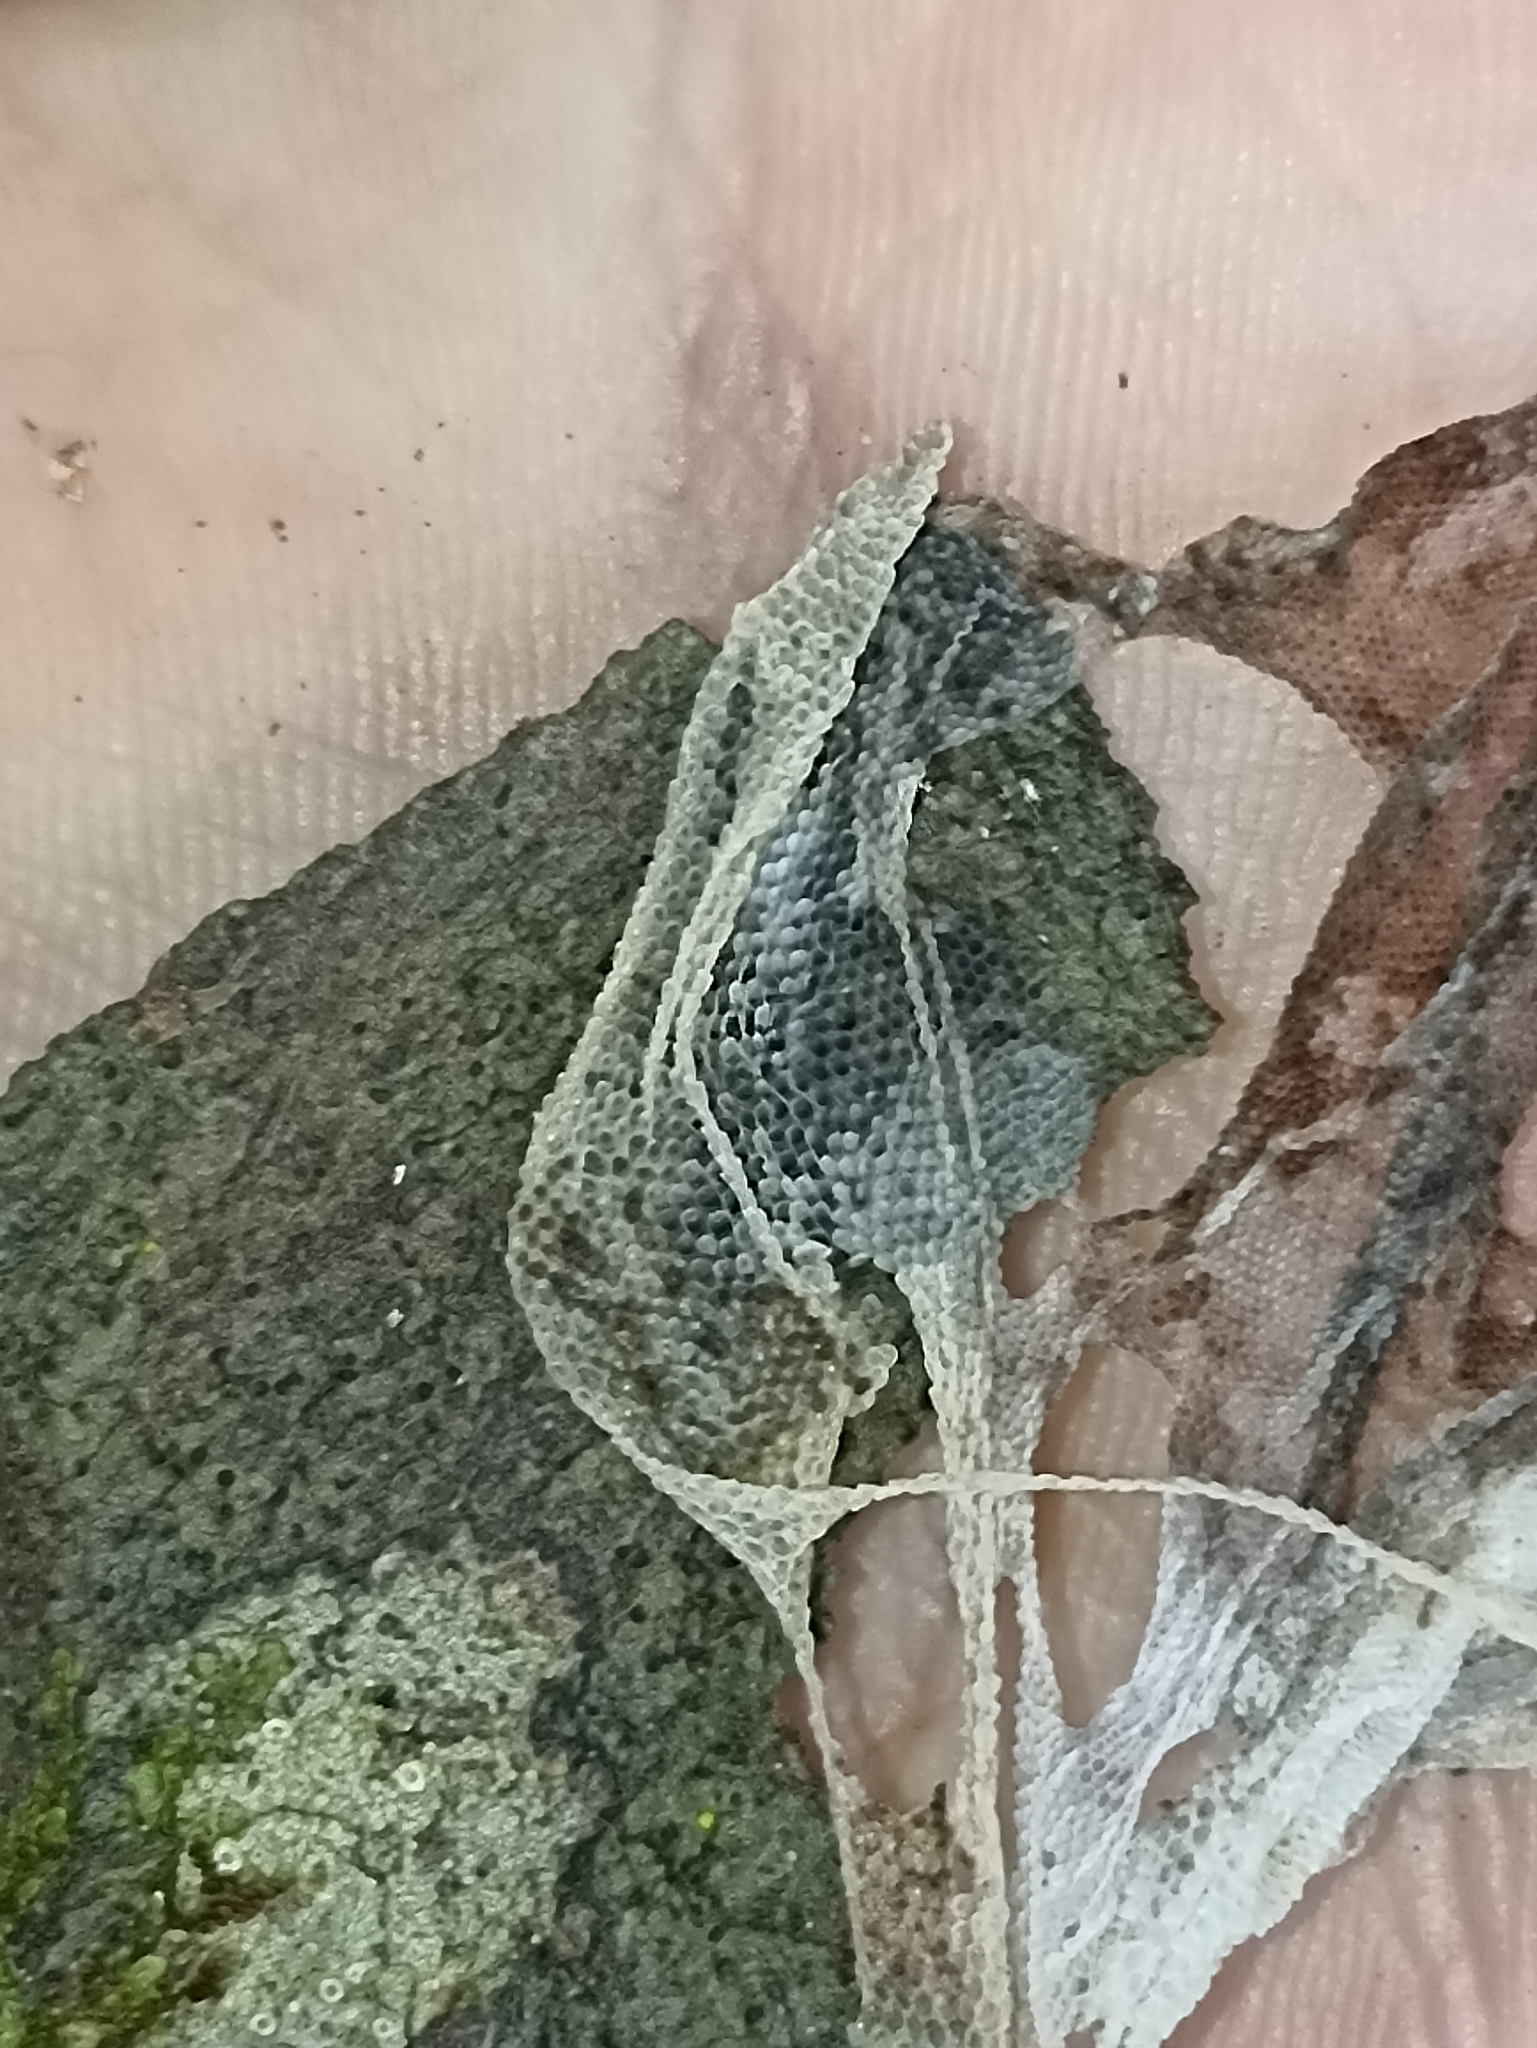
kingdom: Animalia
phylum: Chordata
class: Squamata
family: Diplodactylidae
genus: Mokopirirakau
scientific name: Mokopirirakau
